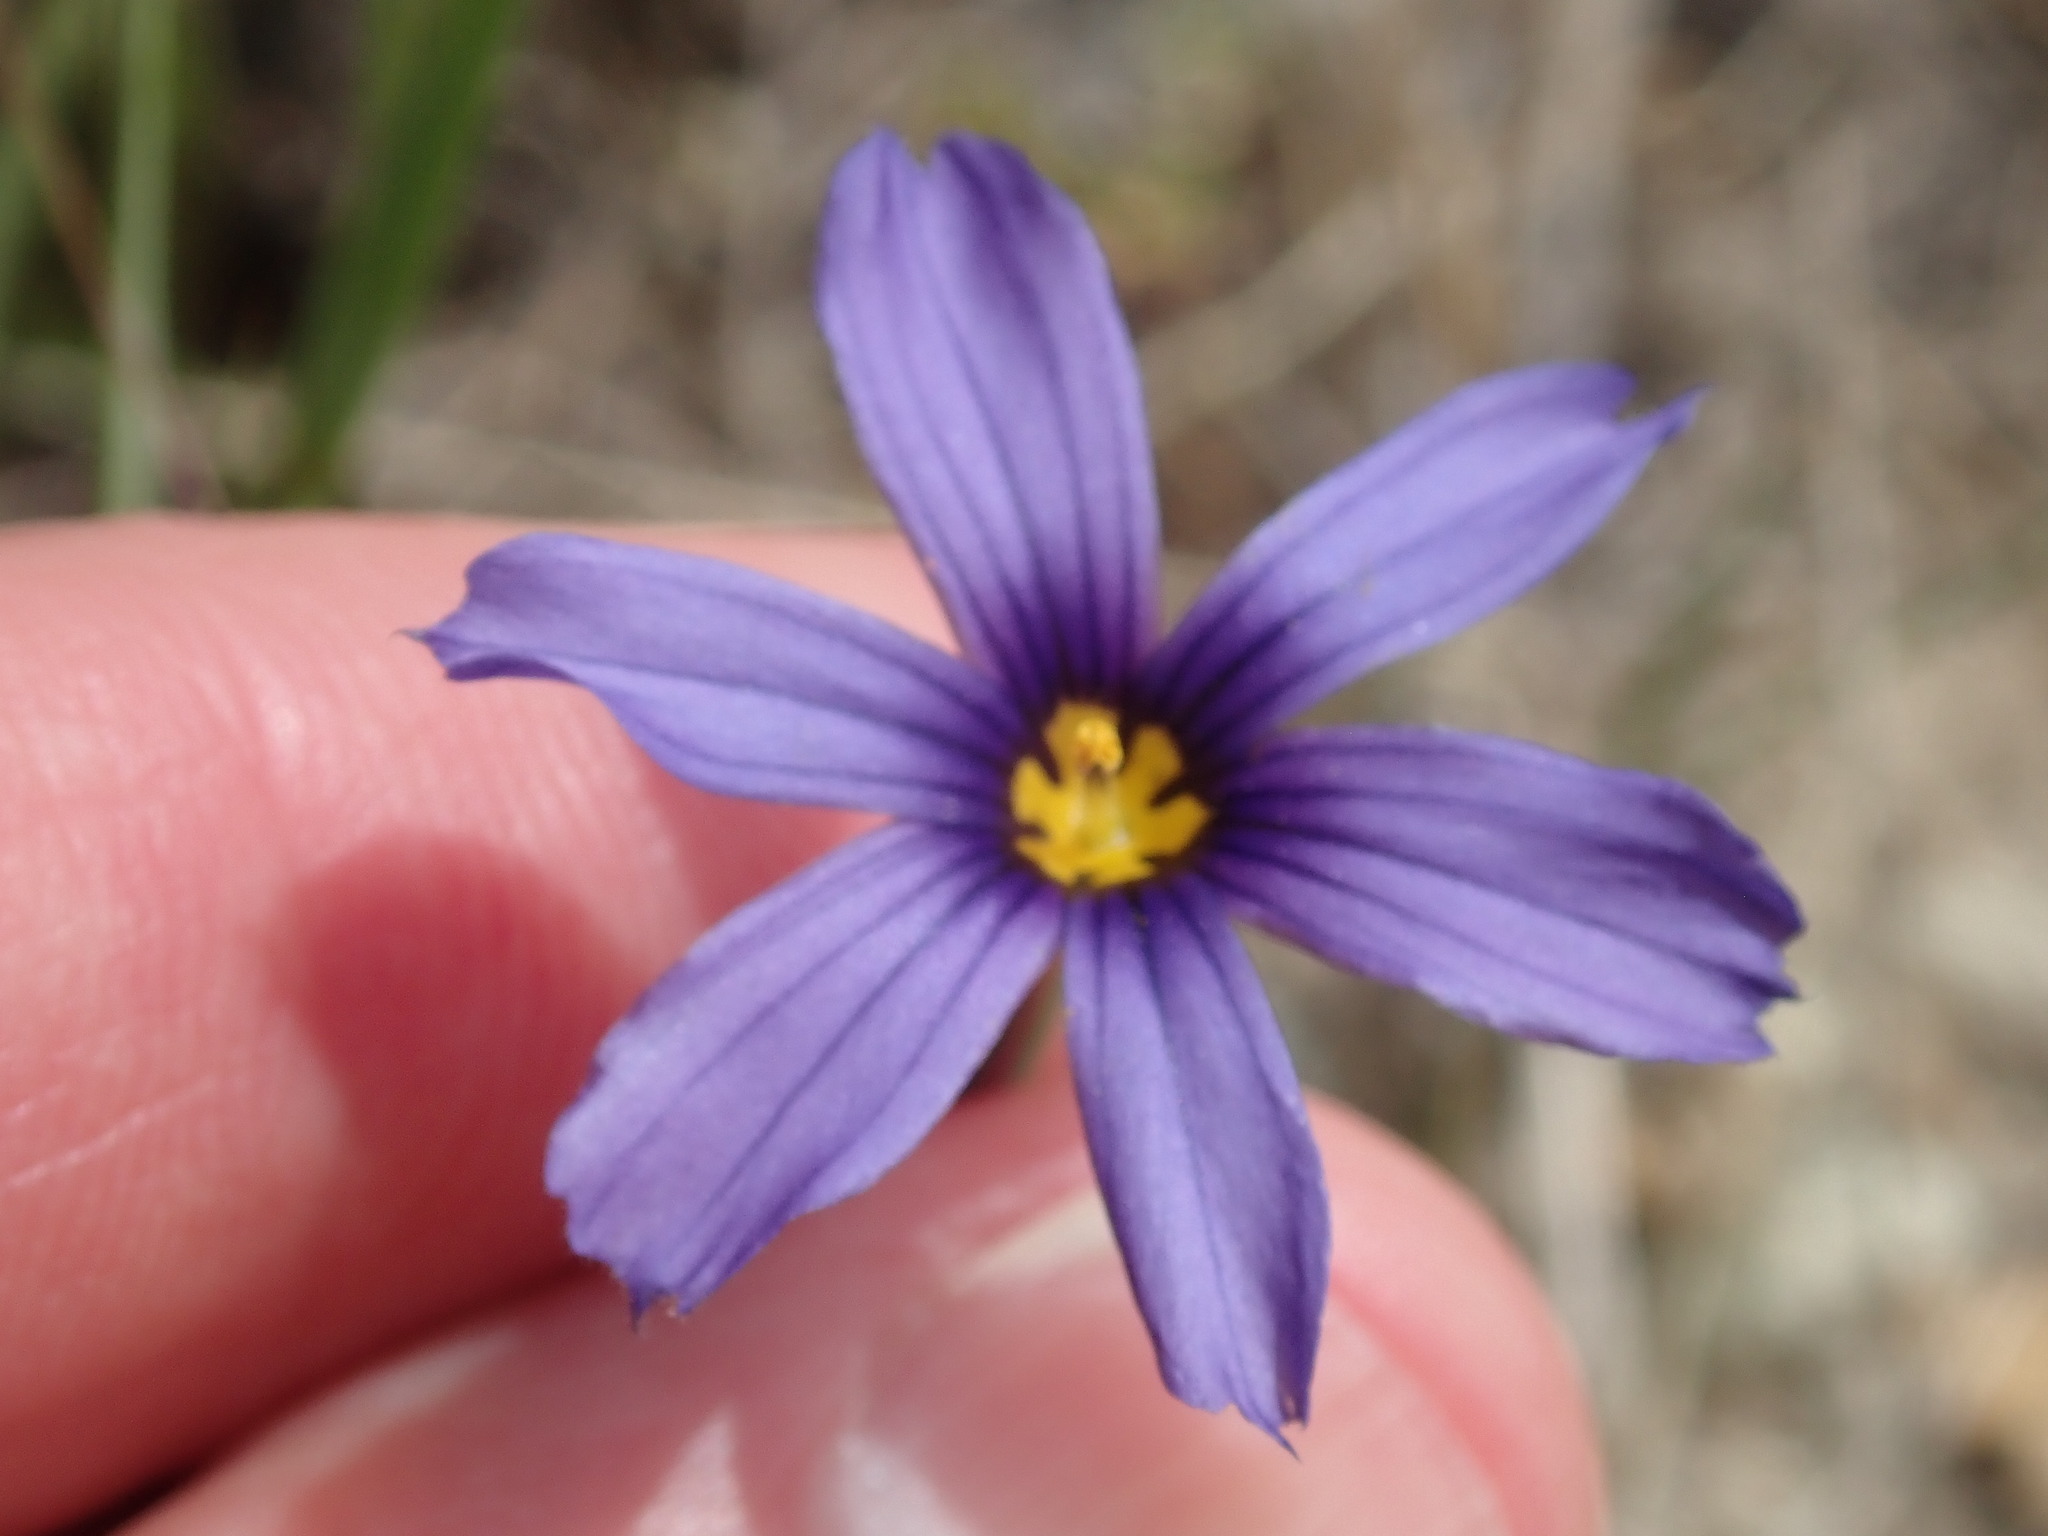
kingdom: Plantae
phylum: Tracheophyta
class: Liliopsida
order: Asparagales
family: Iridaceae
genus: Sisyrinchium
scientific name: Sisyrinchium bellum
